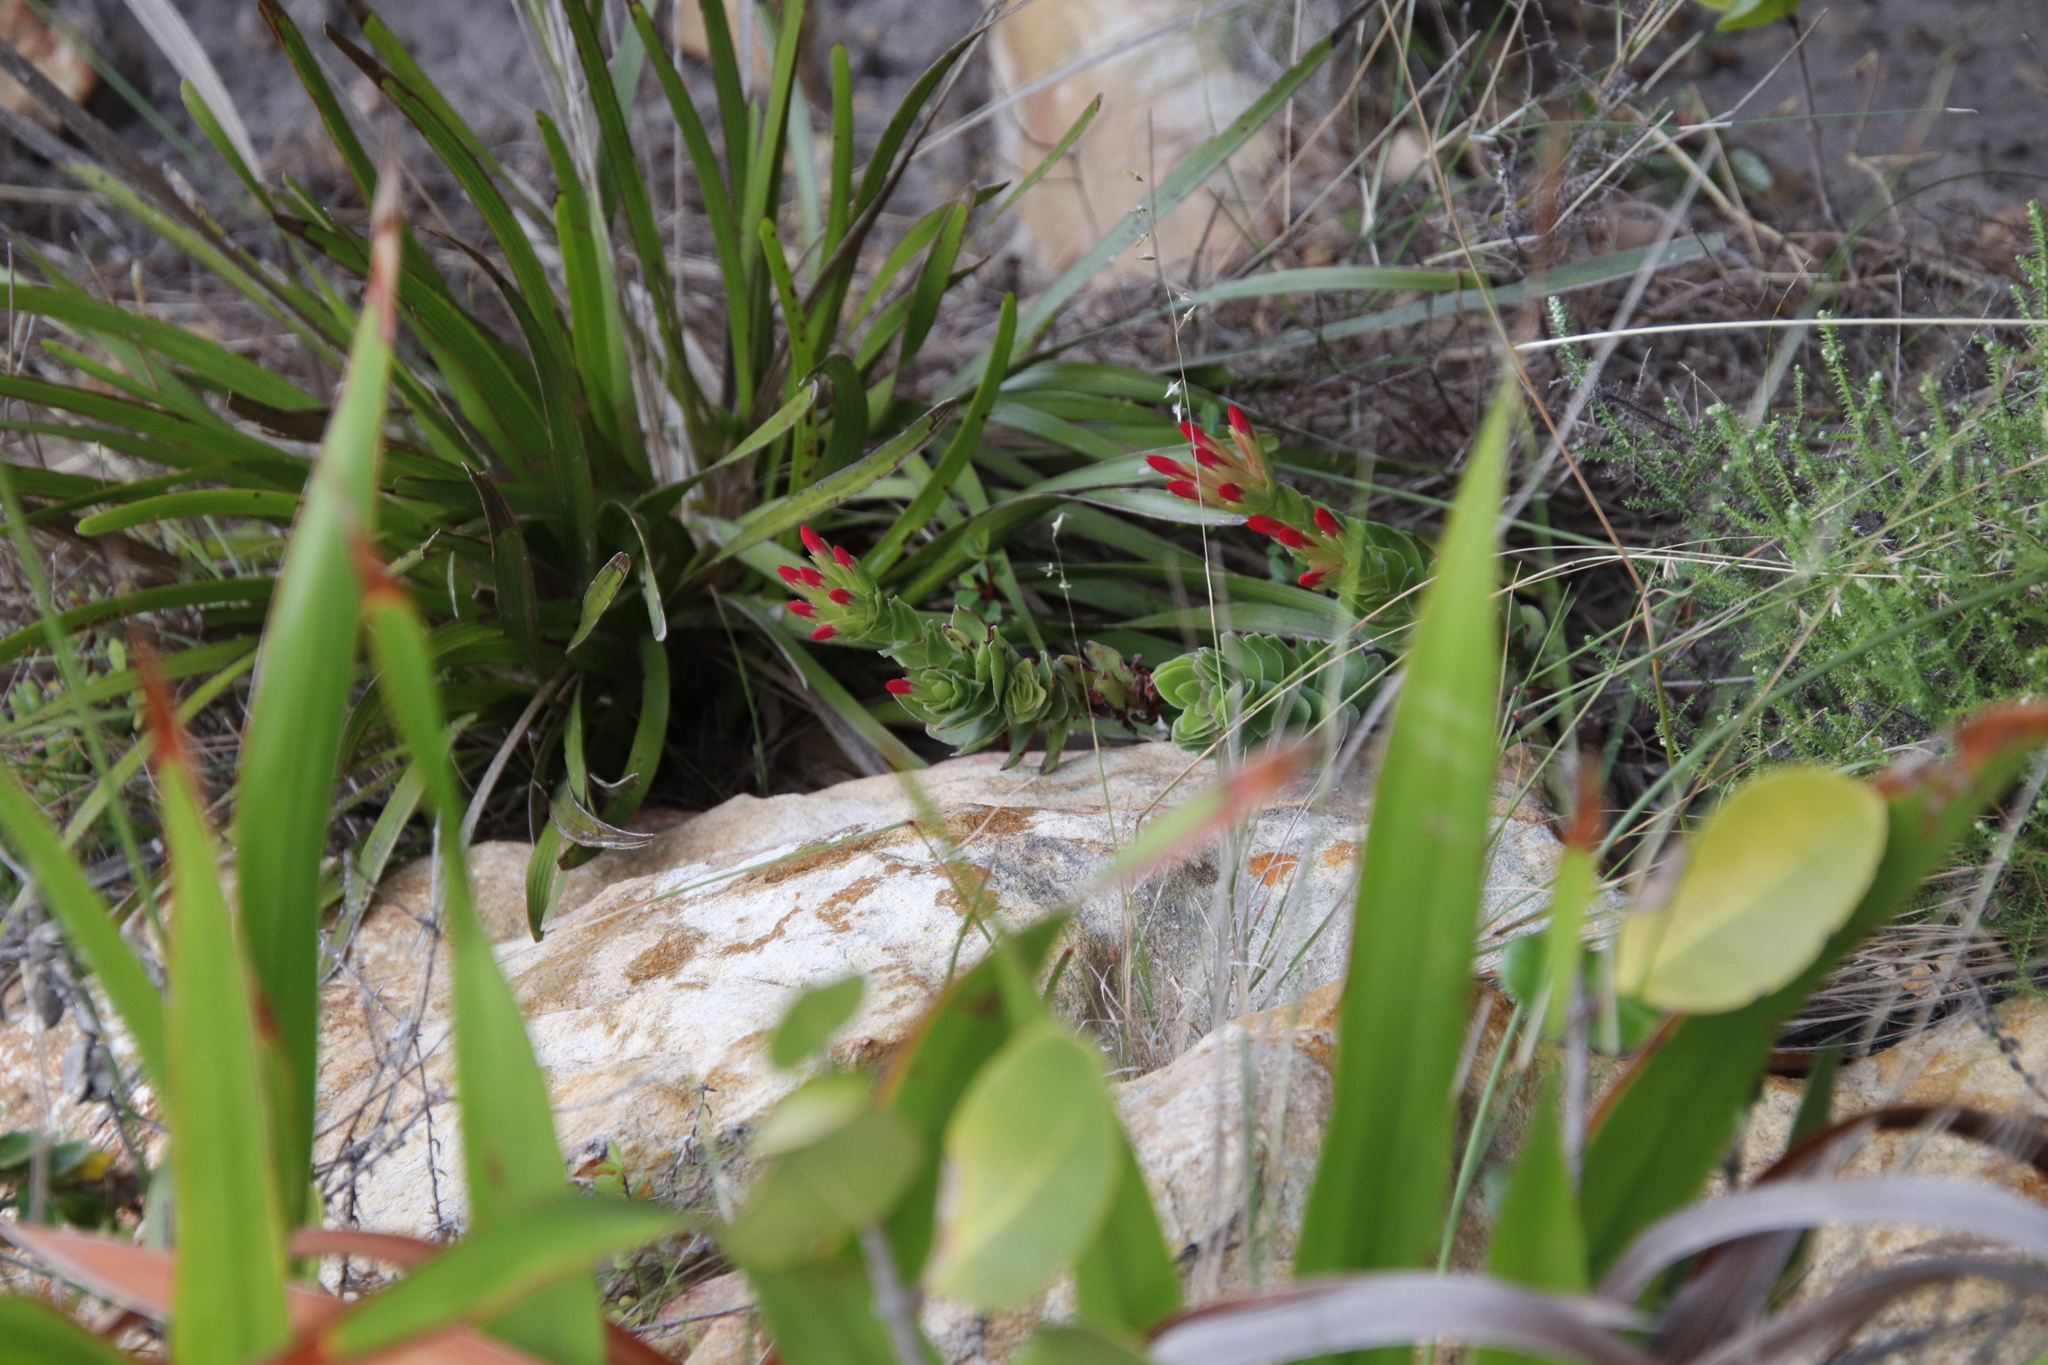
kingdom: Plantae
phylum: Tracheophyta
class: Magnoliopsida
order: Saxifragales
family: Crassulaceae
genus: Crassula
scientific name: Crassula coccinea
